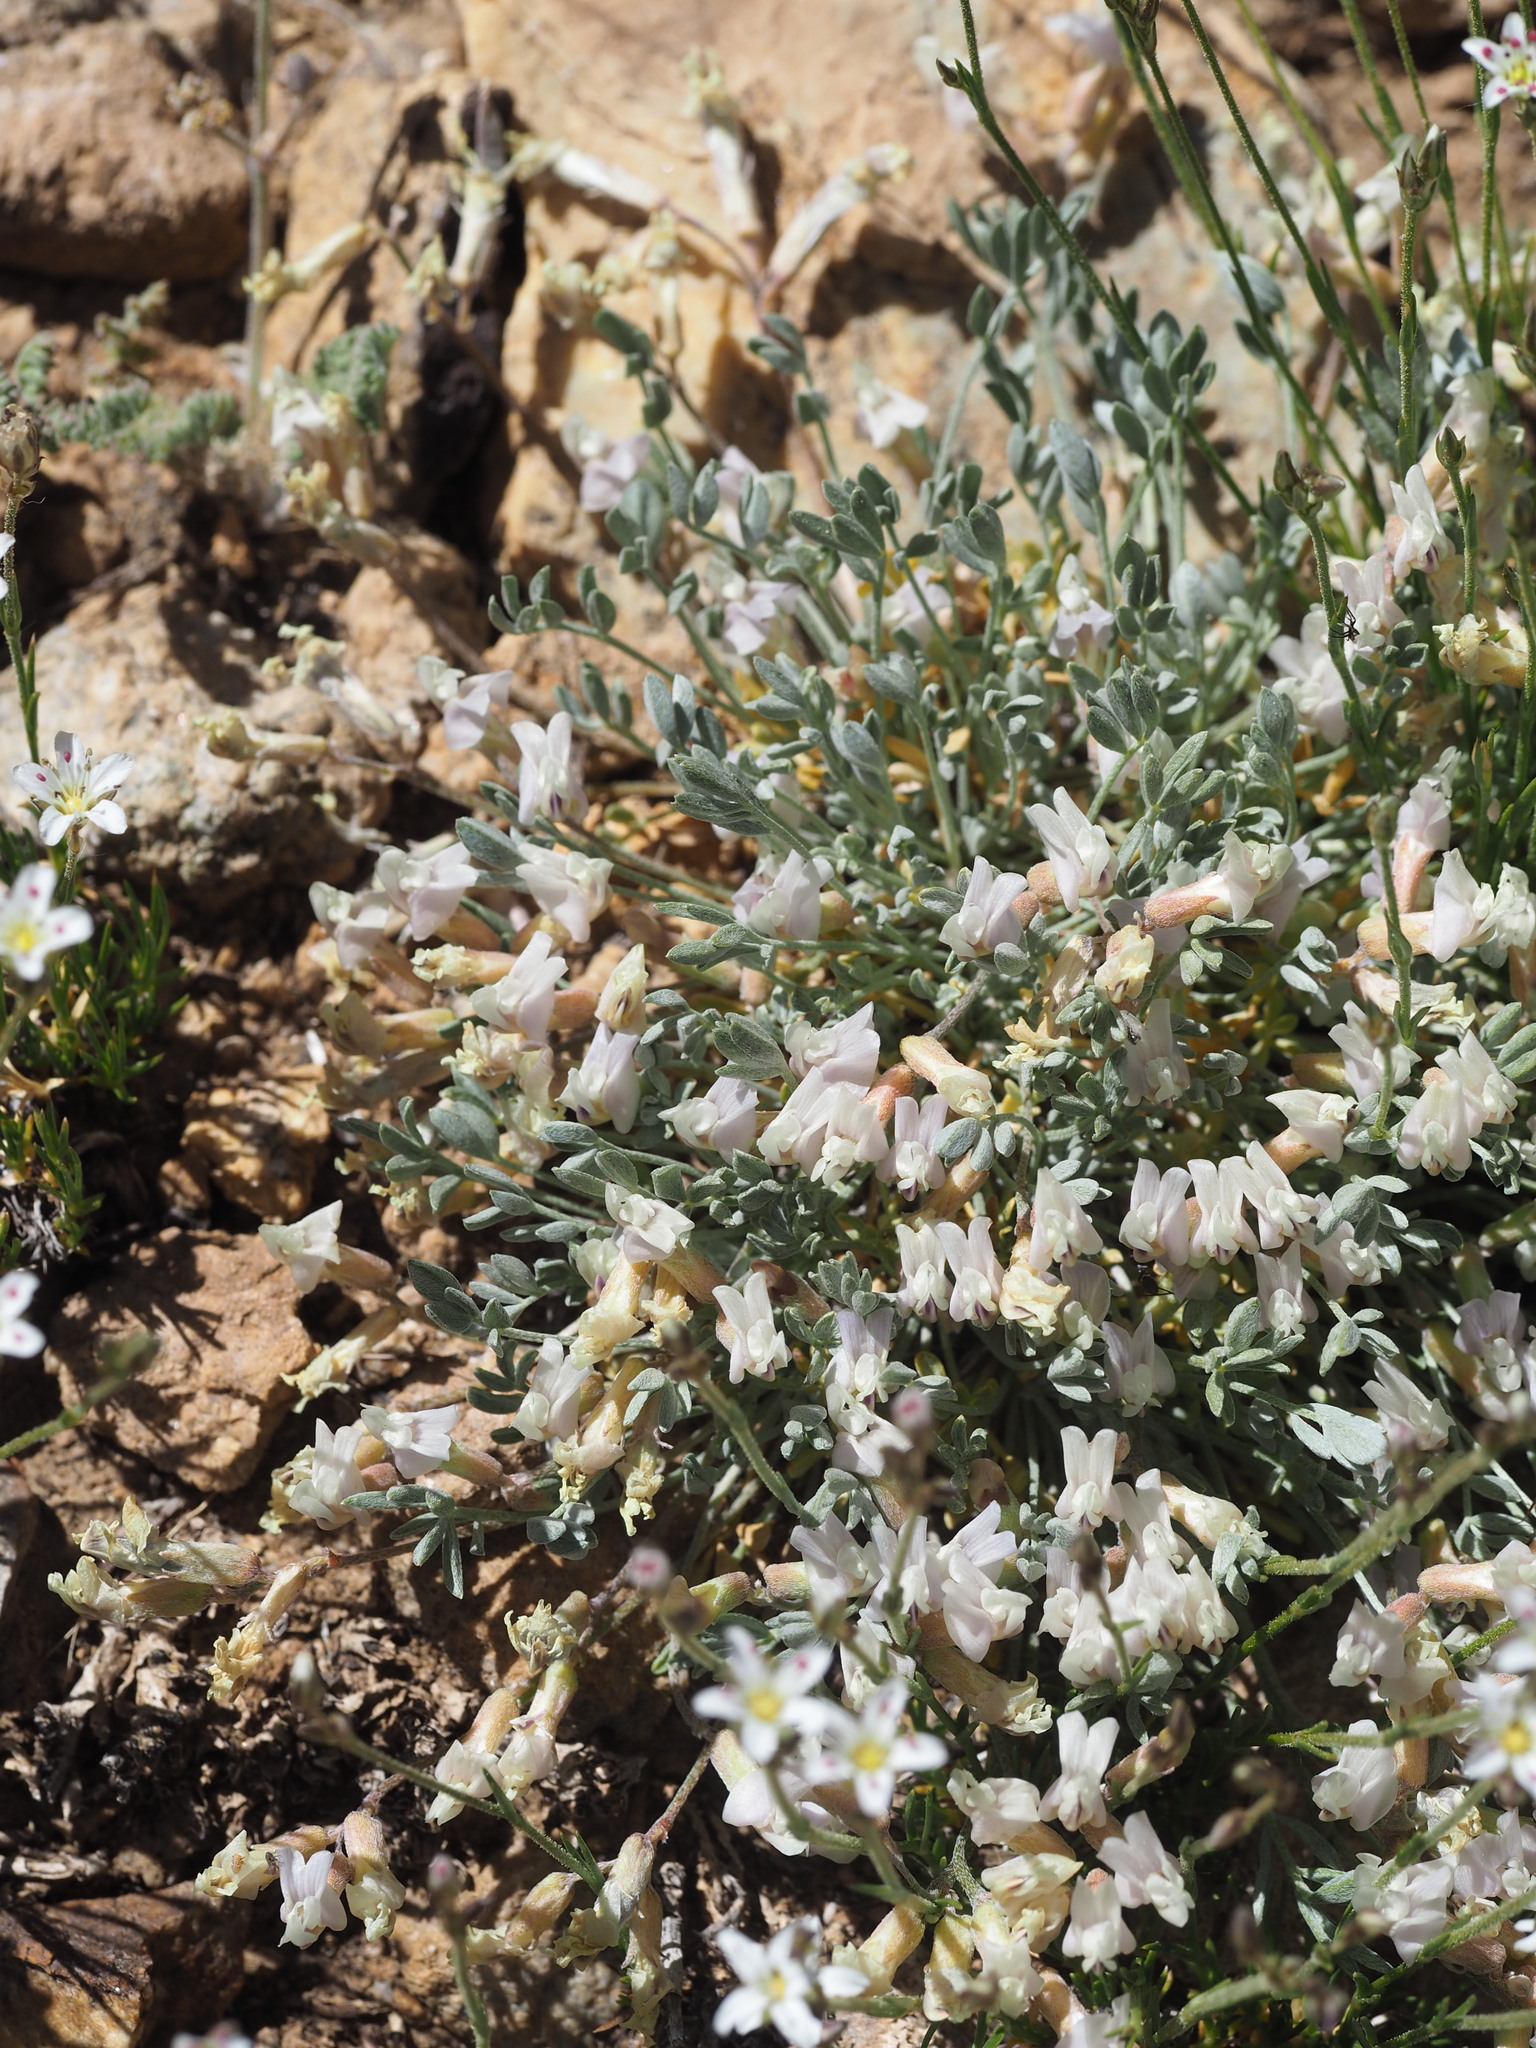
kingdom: Plantae
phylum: Tracheophyta
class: Magnoliopsida
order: Fabales
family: Fabaceae
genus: Astragalus
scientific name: Astragalus calycosus
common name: King's milkvetch
